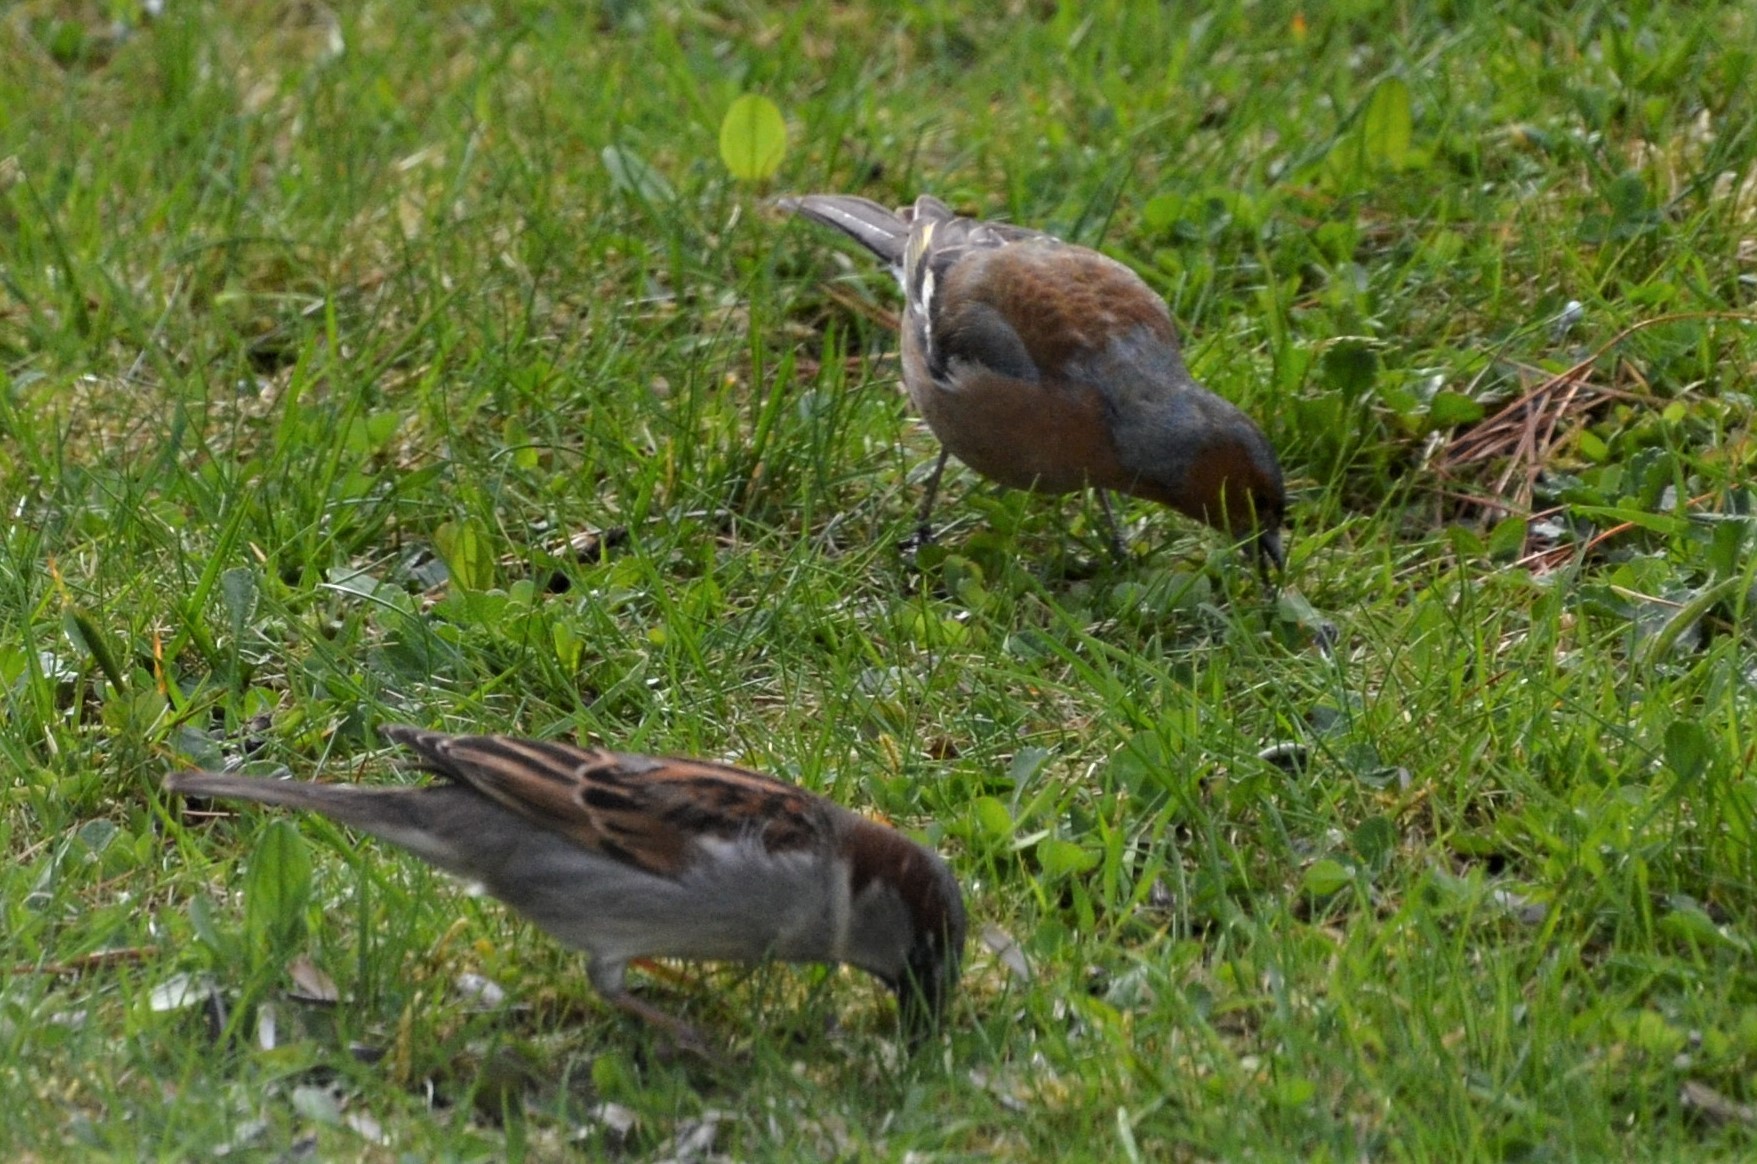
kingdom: Animalia
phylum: Chordata
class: Aves
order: Passeriformes
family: Passeridae
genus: Passer
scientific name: Passer domesticus
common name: House sparrow
